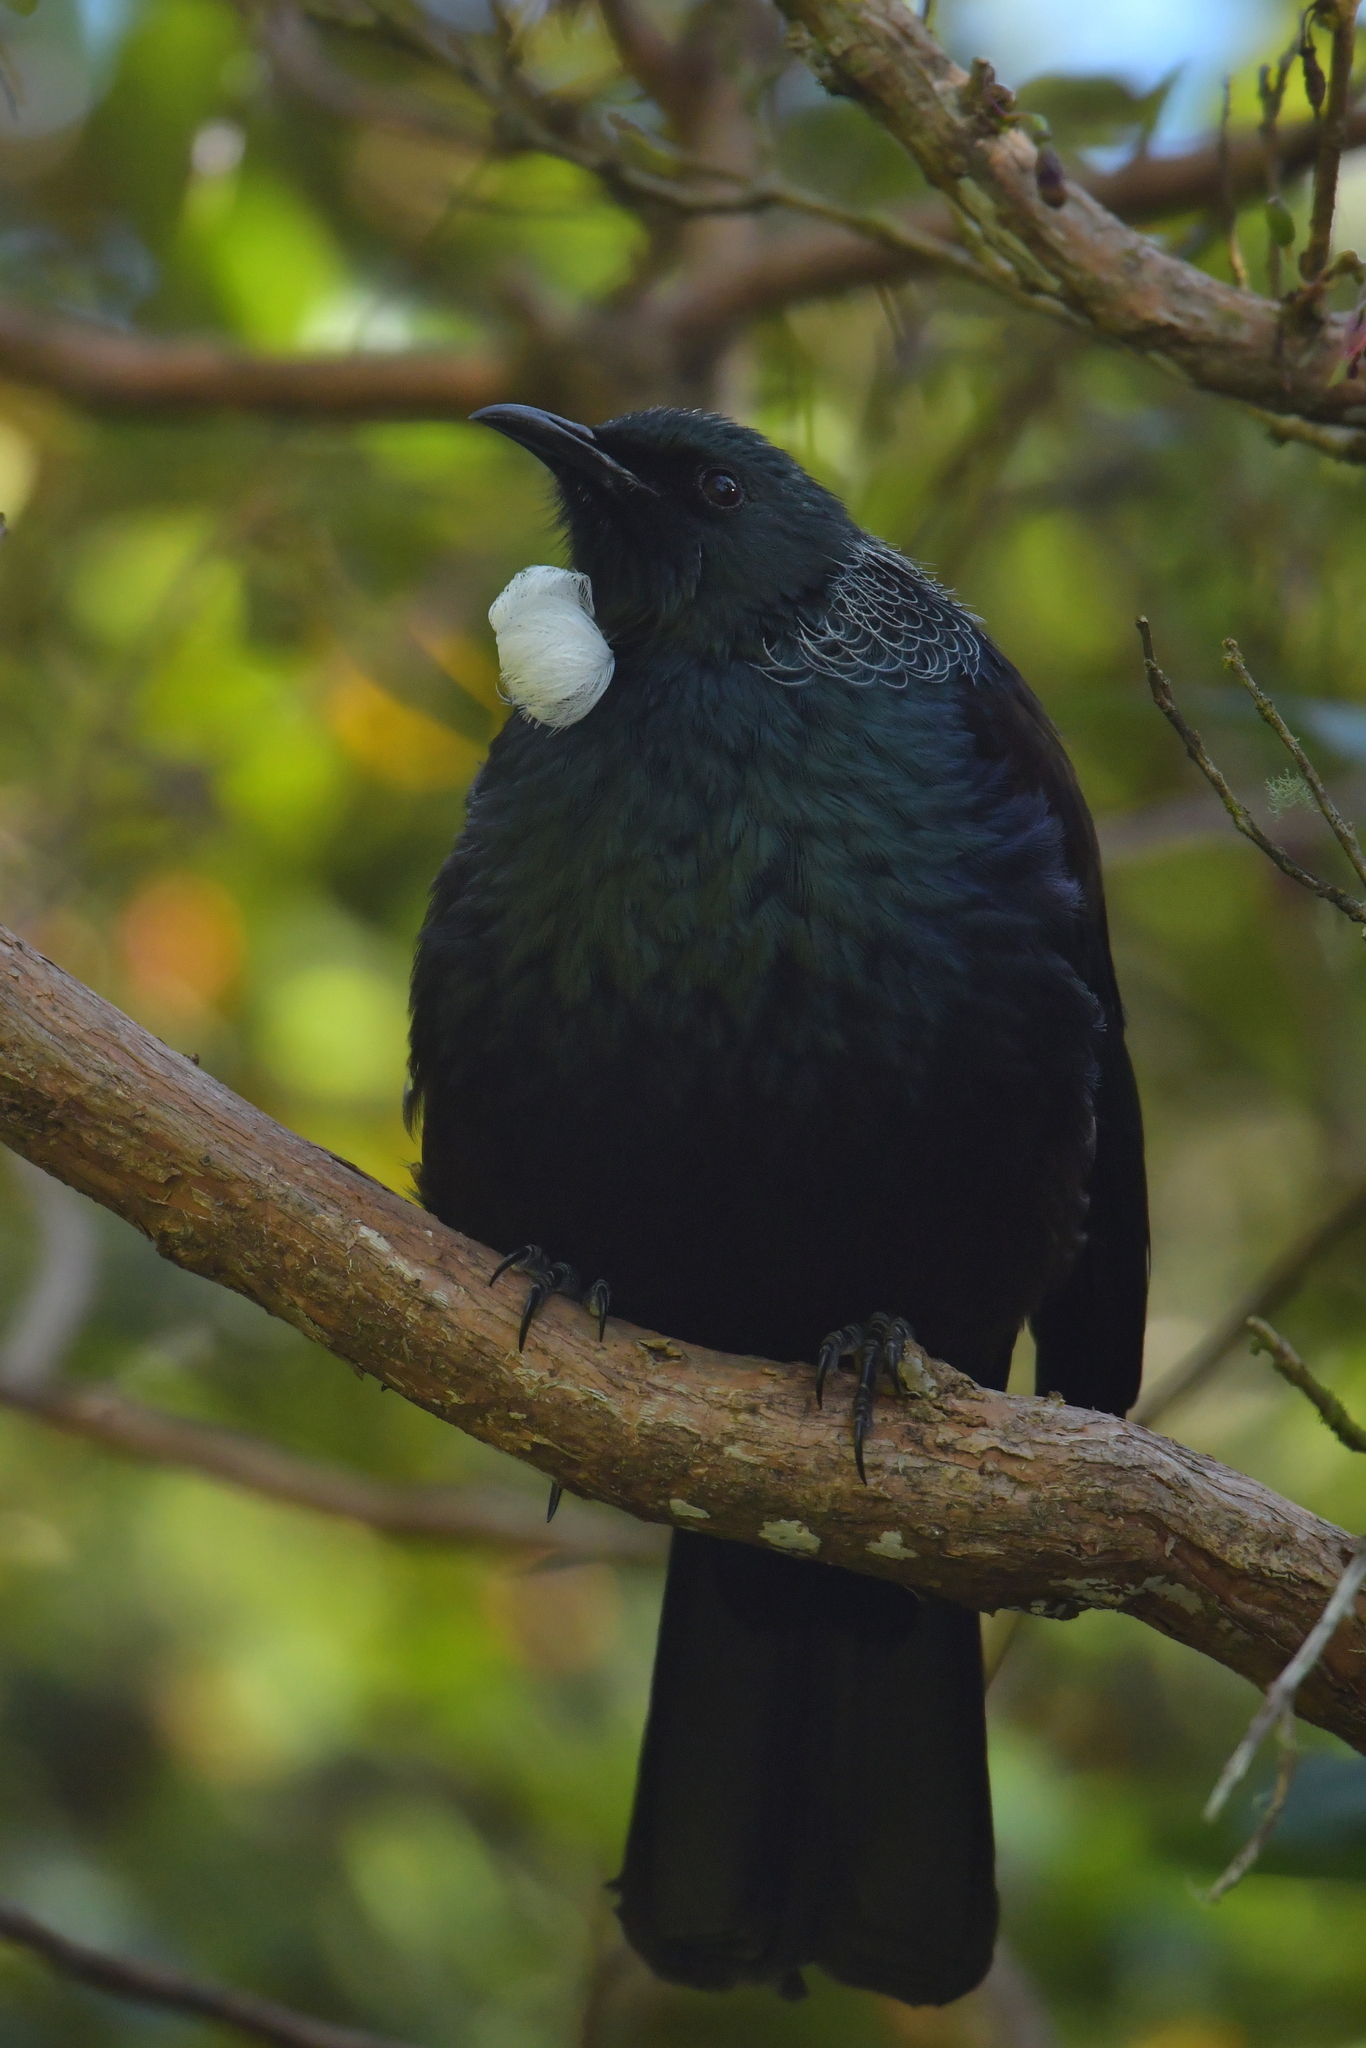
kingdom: Animalia
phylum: Chordata
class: Aves
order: Passeriformes
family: Meliphagidae
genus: Prosthemadera
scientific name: Prosthemadera novaeseelandiae
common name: Tui
